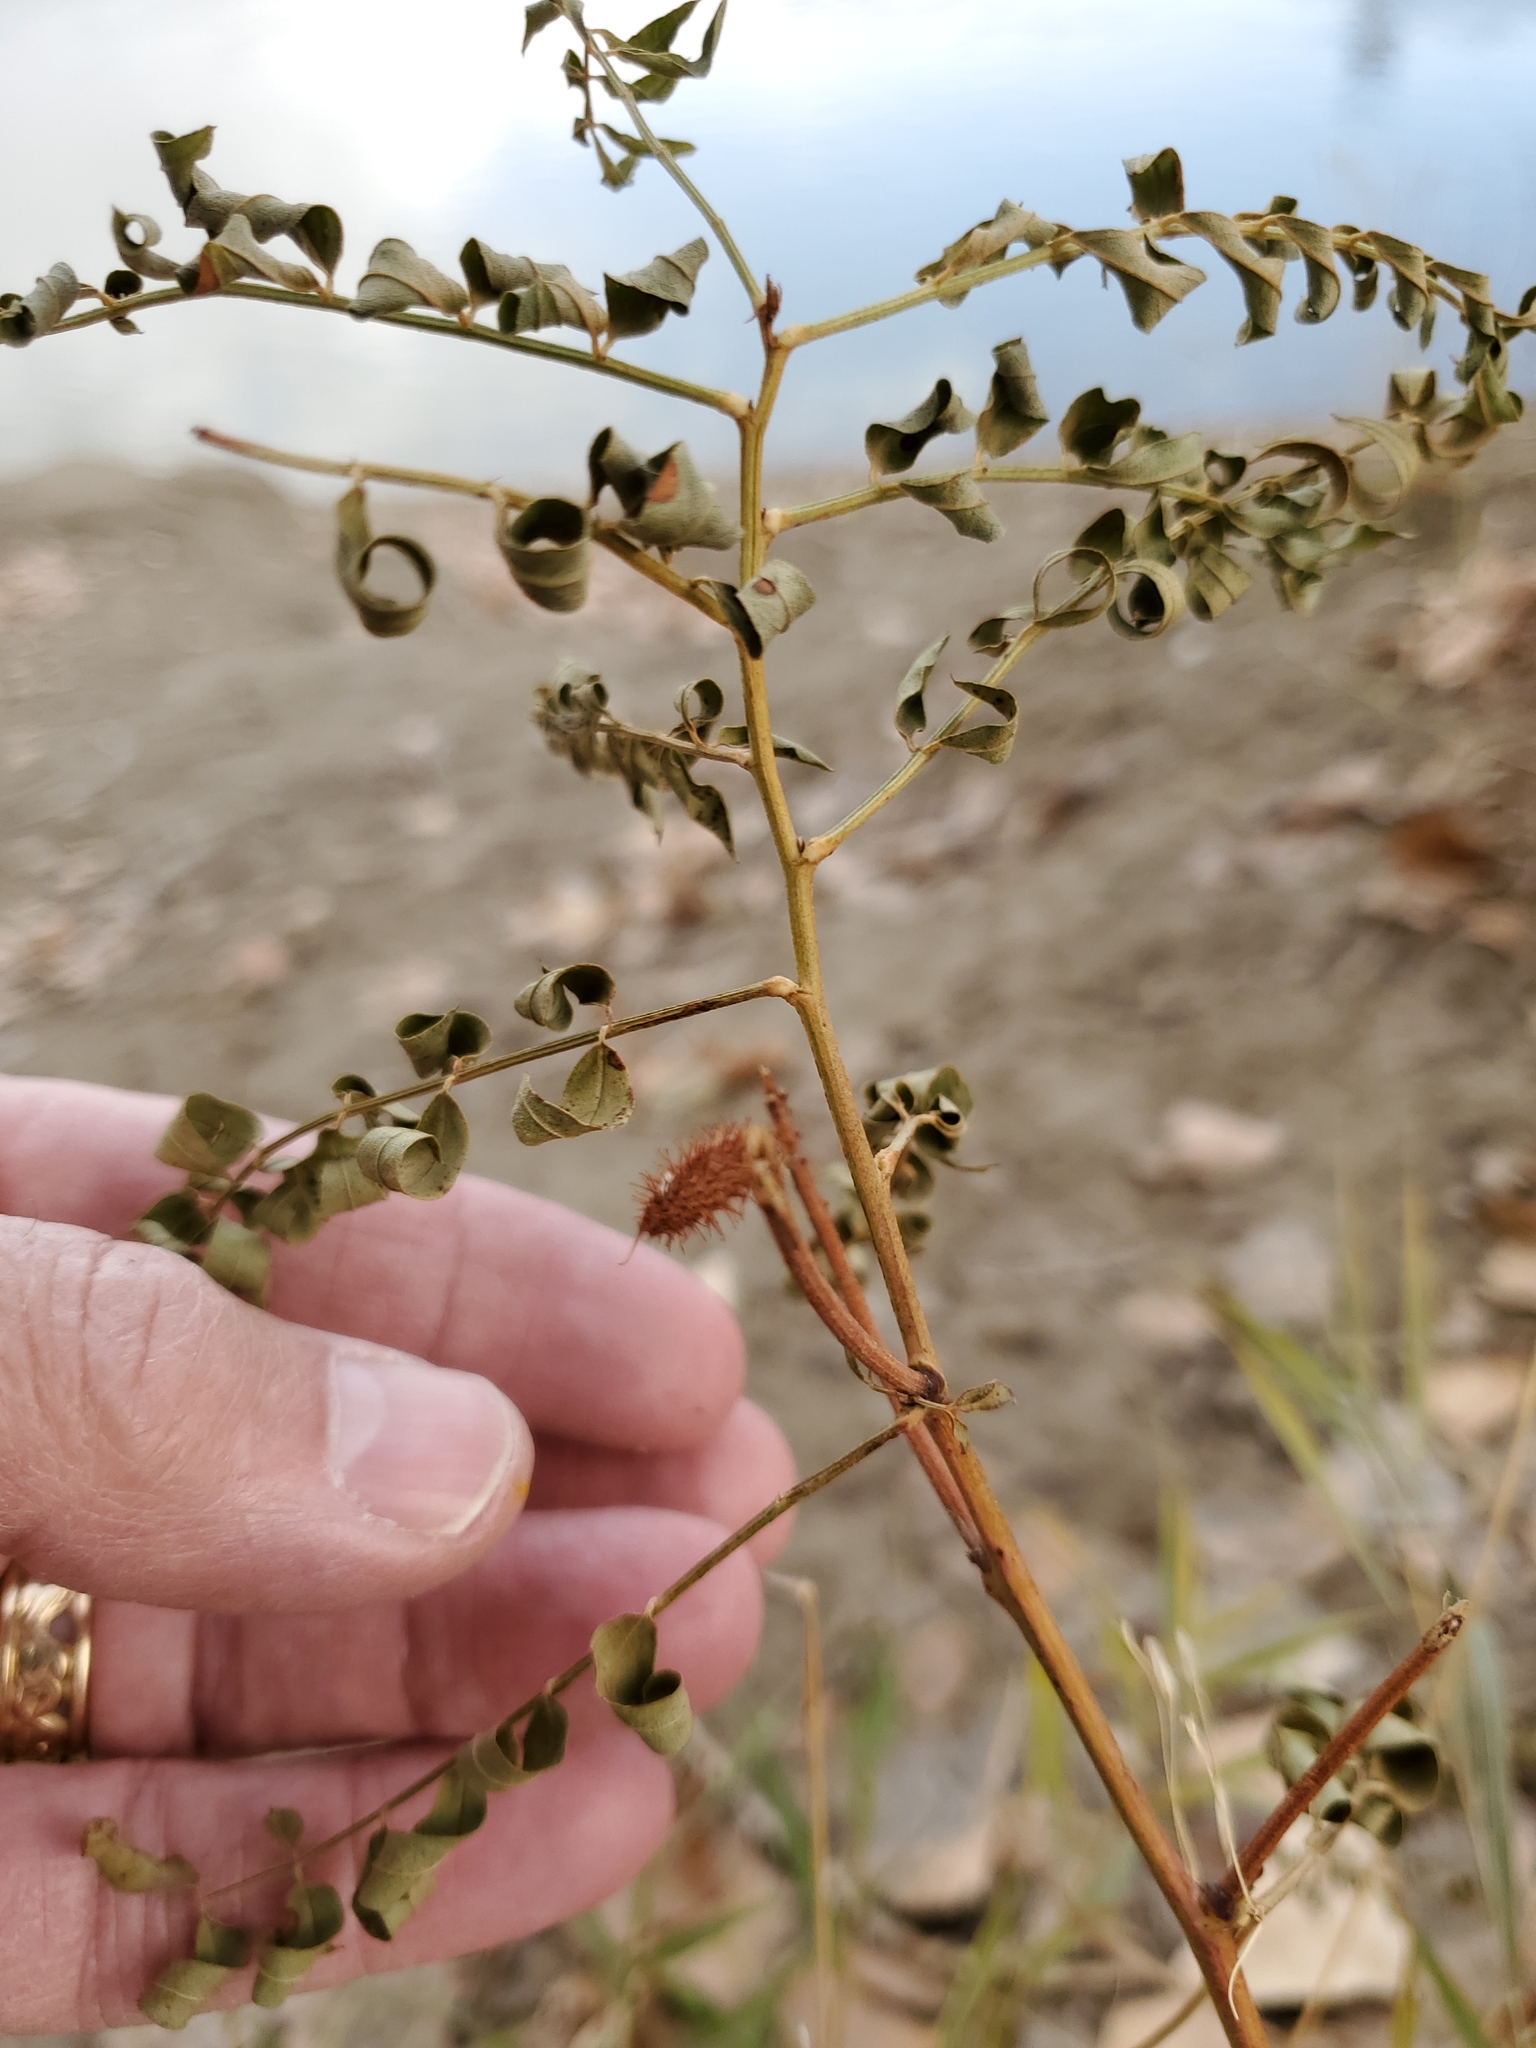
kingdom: Plantae
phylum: Tracheophyta
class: Magnoliopsida
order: Fabales
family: Fabaceae
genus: Glycyrrhiza
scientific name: Glycyrrhiza lepidota
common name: American liquorice
